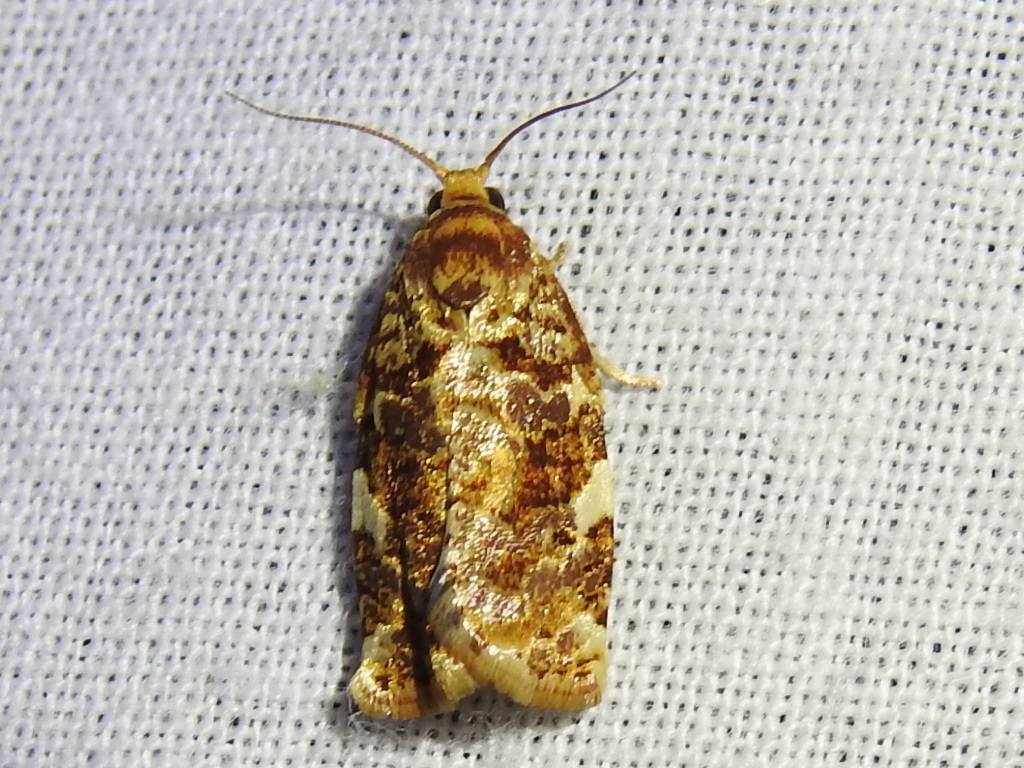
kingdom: Animalia
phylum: Arthropoda
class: Insecta
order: Lepidoptera
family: Tortricidae
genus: Archips
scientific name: Archips argyrospila
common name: Fruit-tree leafroller moth
